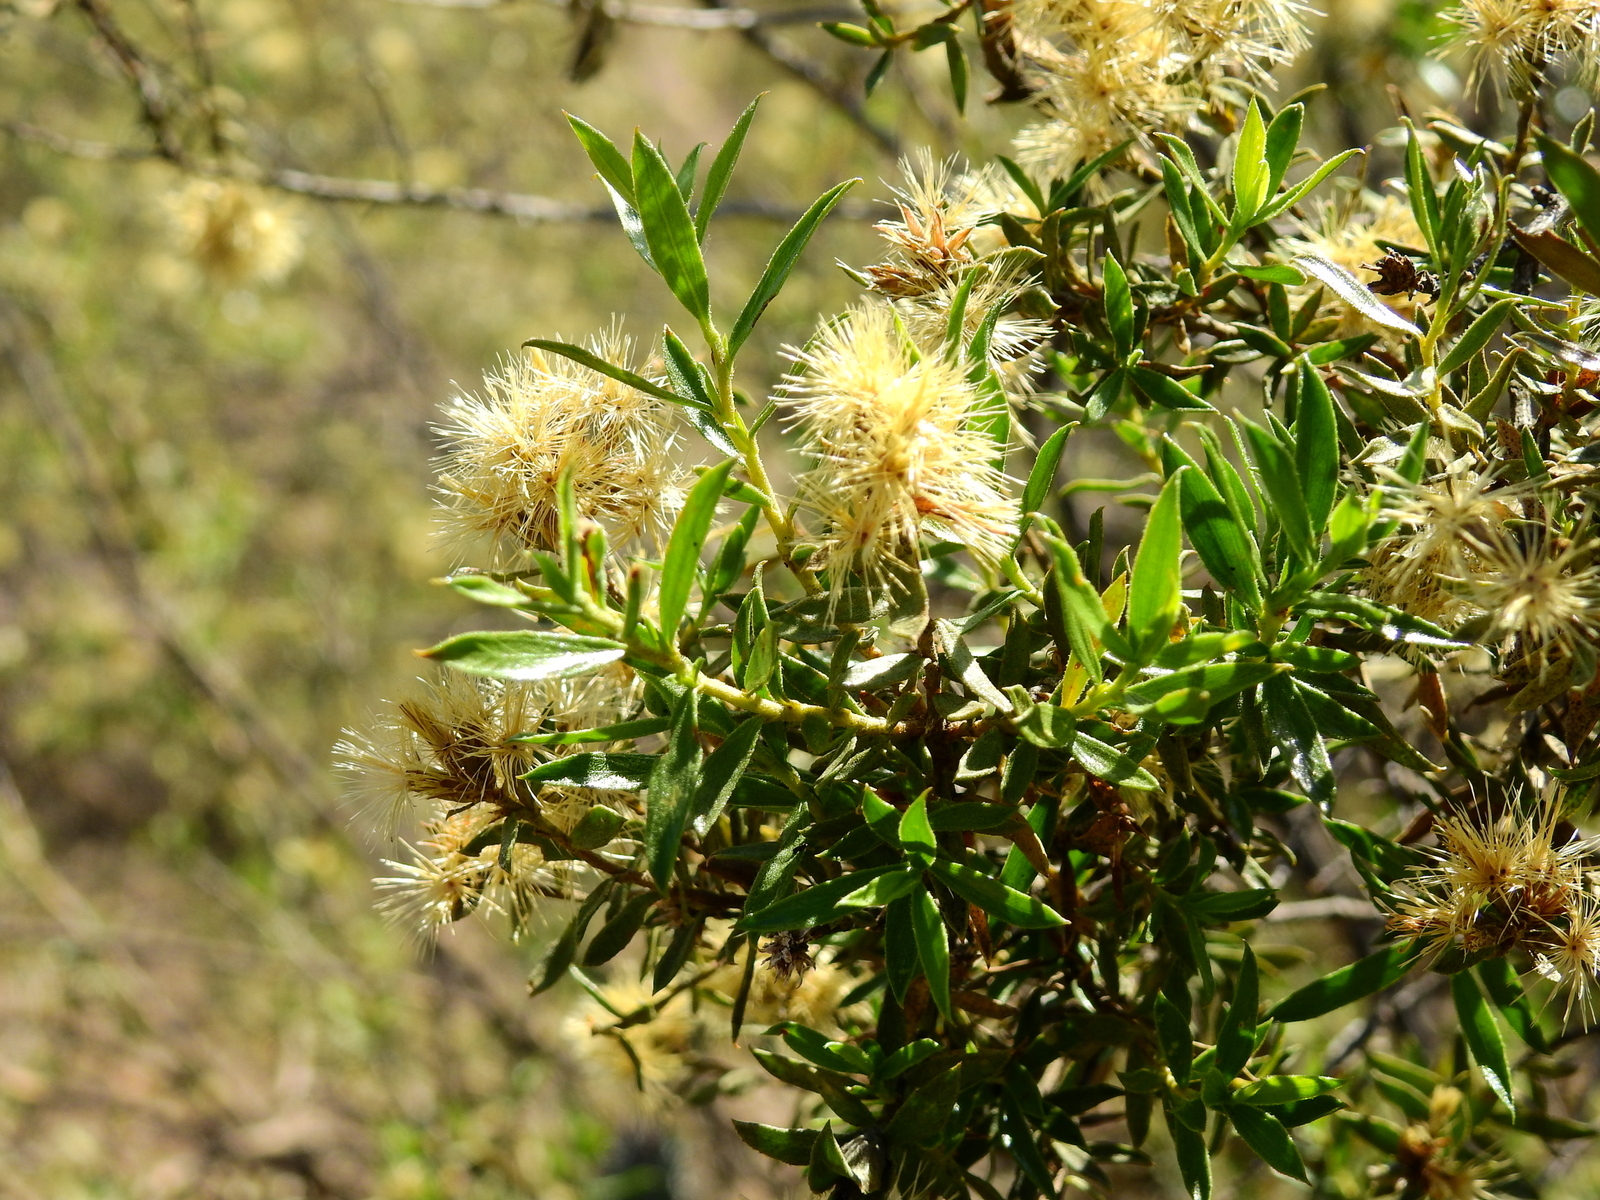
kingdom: Plantae
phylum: Tracheophyta
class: Magnoliopsida
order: Asterales
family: Asteraceae
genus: Gochnatia
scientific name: Gochnatia glutinosa
